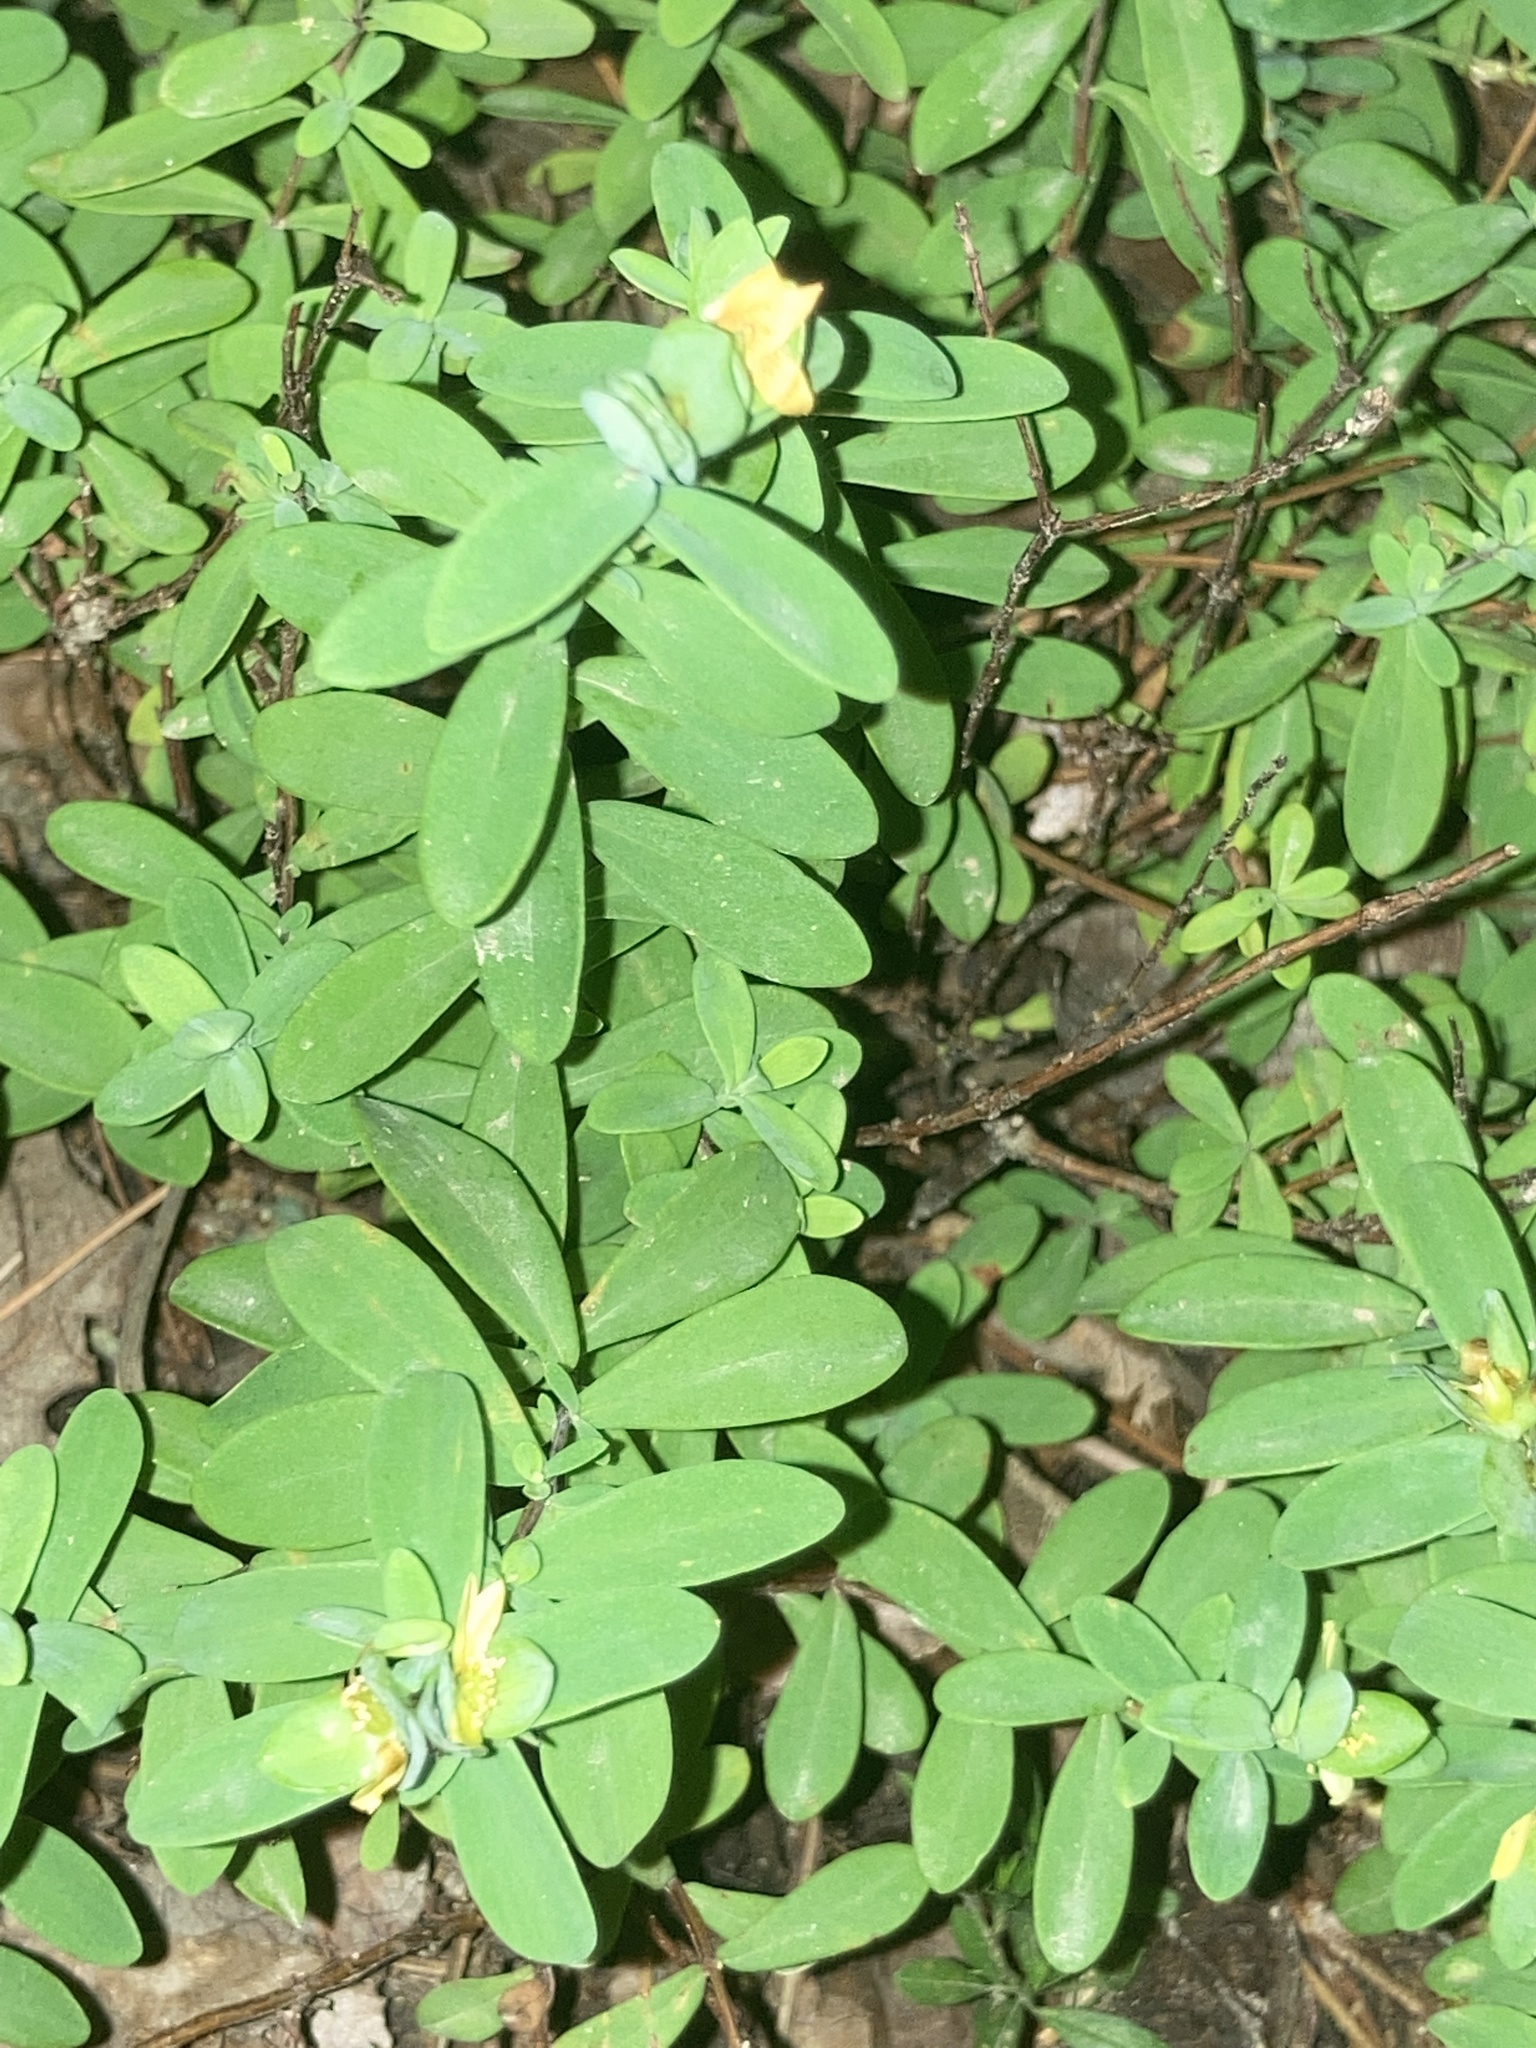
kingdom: Plantae
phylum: Tracheophyta
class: Magnoliopsida
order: Malpighiales
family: Hypericaceae
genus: Hypericum
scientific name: Hypericum hypericoides
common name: St. andrew's cross
